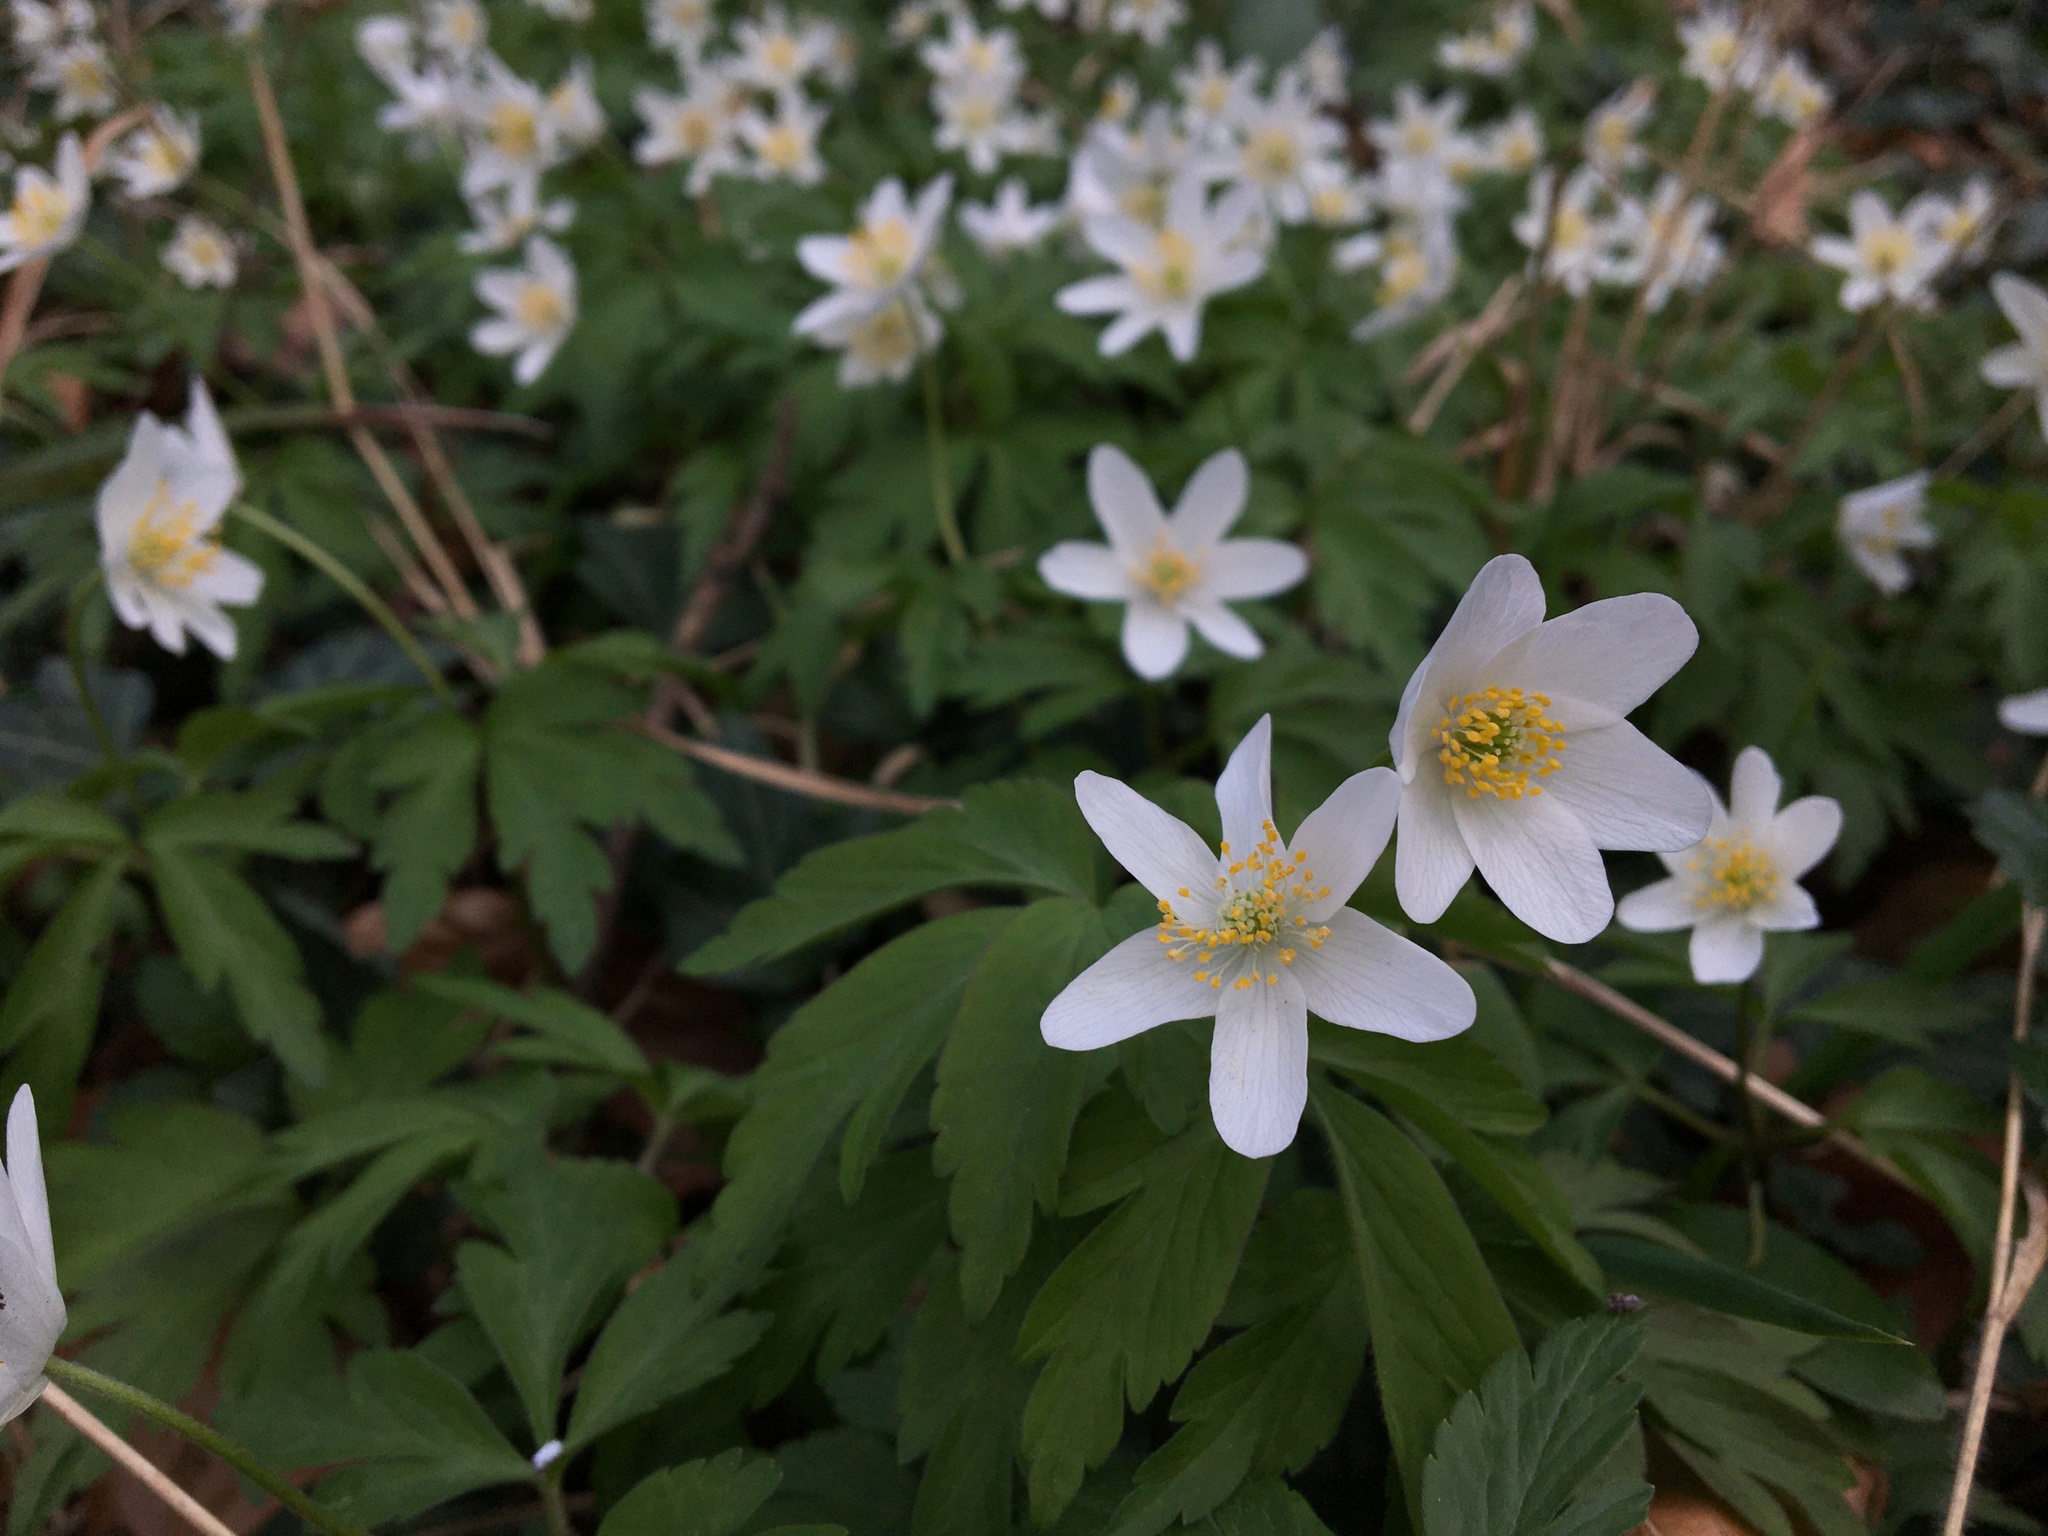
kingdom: Plantae
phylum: Tracheophyta
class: Magnoliopsida
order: Ranunculales
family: Ranunculaceae
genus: Anemone
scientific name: Anemone nemorosa
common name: Wood anemone
